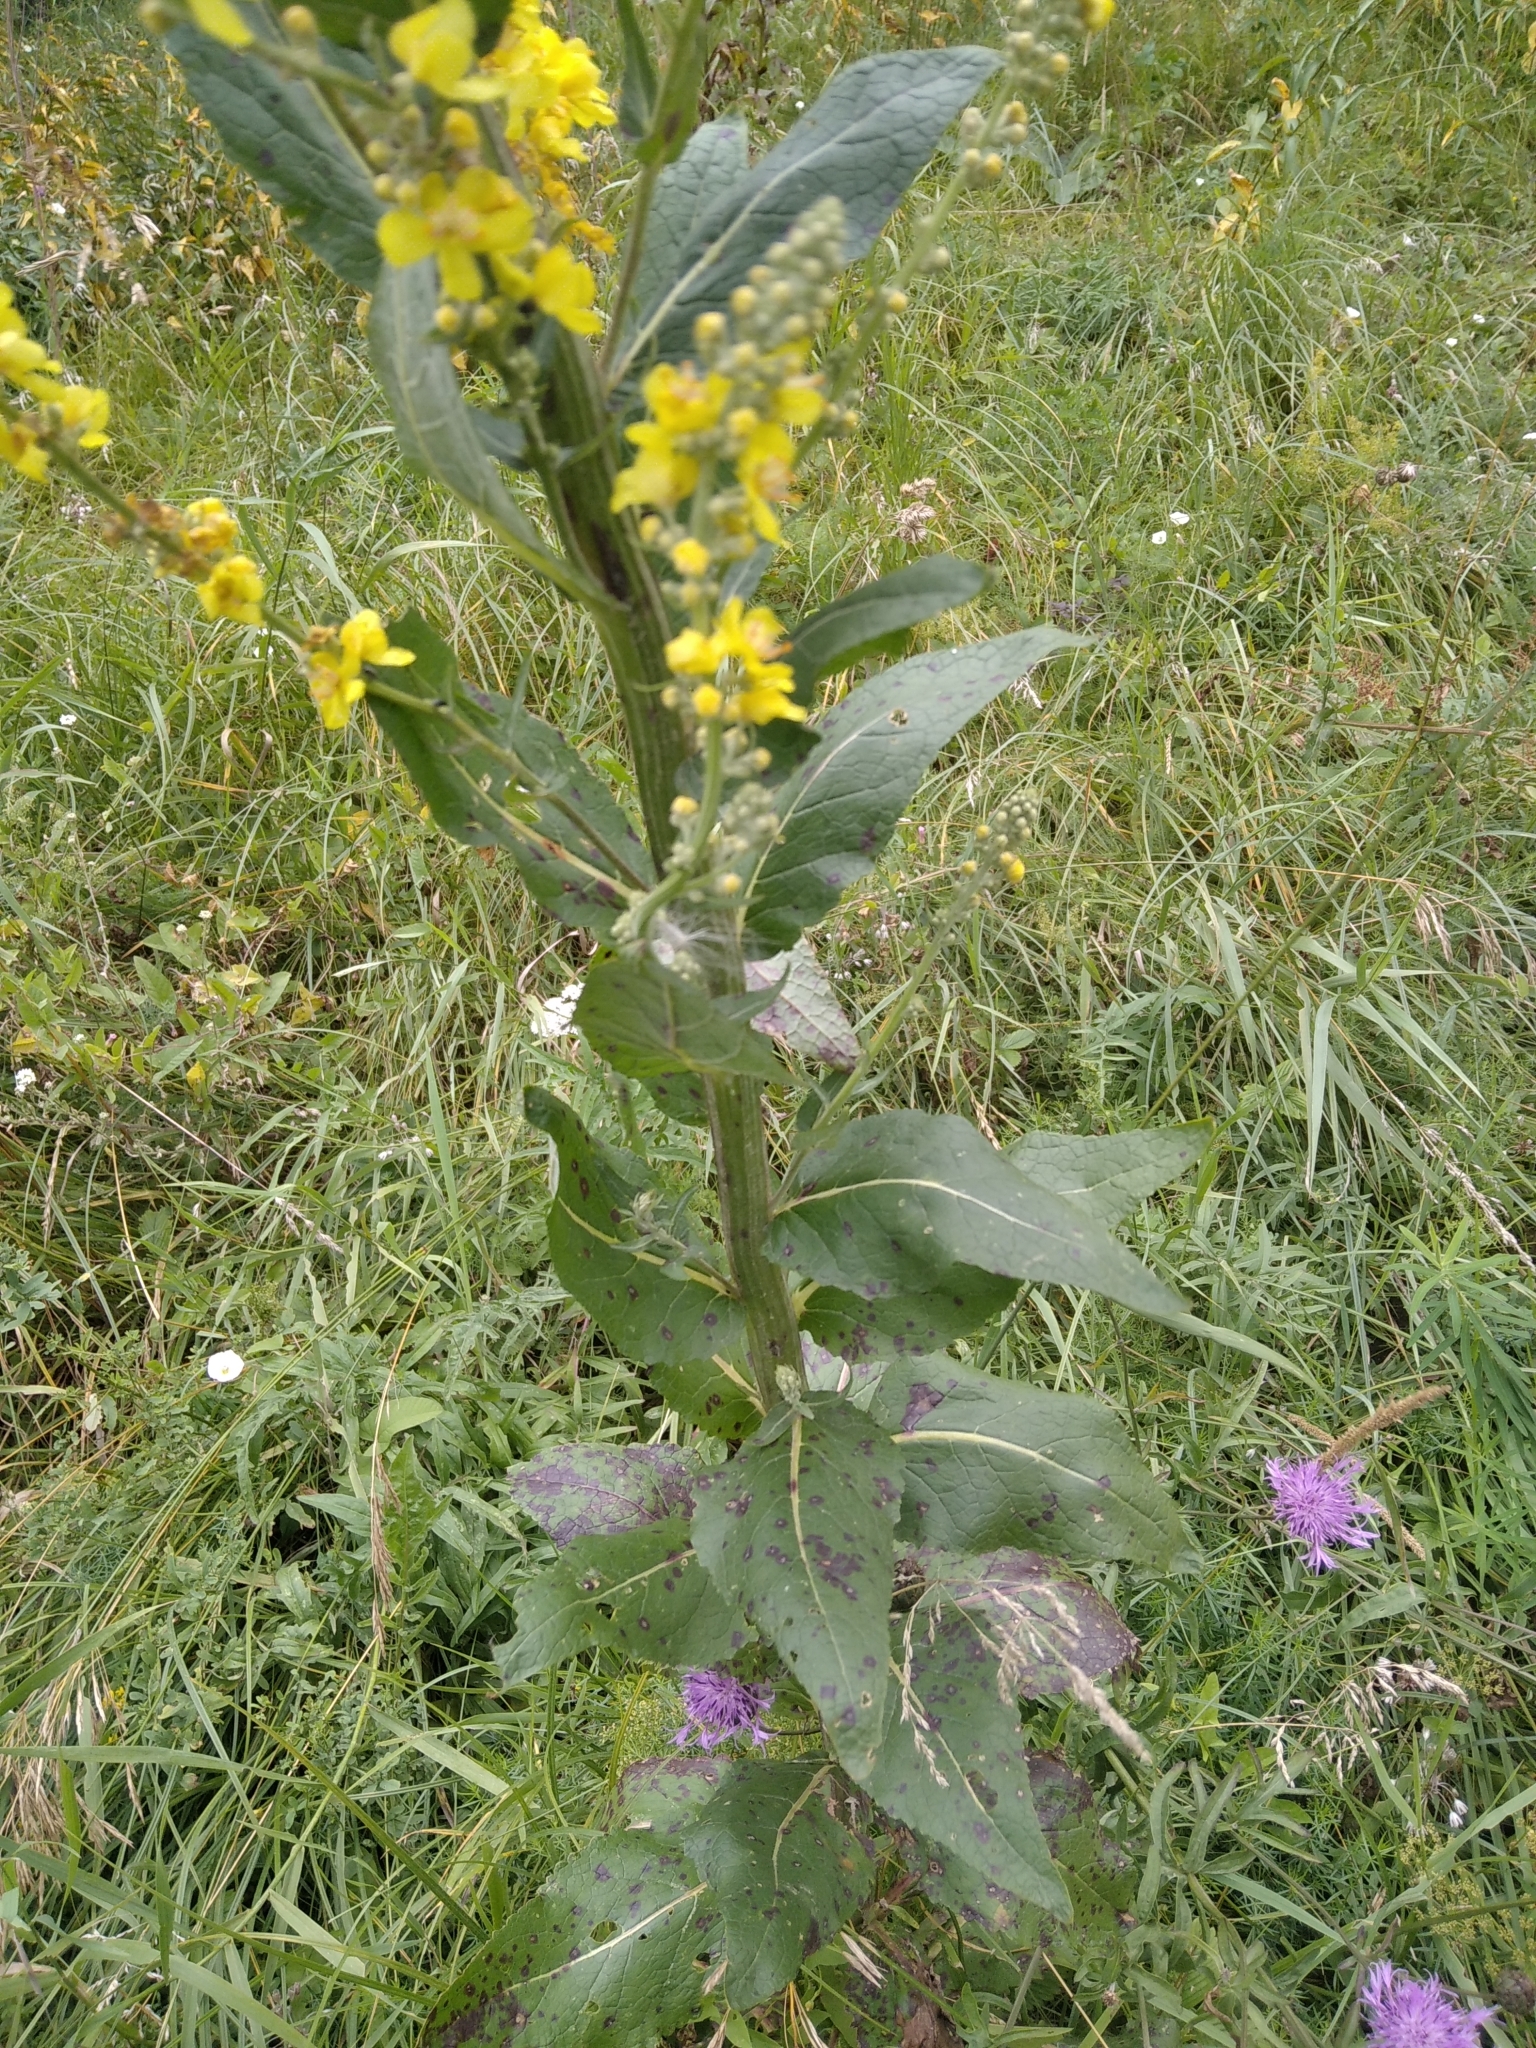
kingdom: Plantae
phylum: Tracheophyta
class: Magnoliopsida
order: Lamiales
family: Scrophulariaceae
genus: Verbascum
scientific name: Verbascum lychnitis
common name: White mullein
